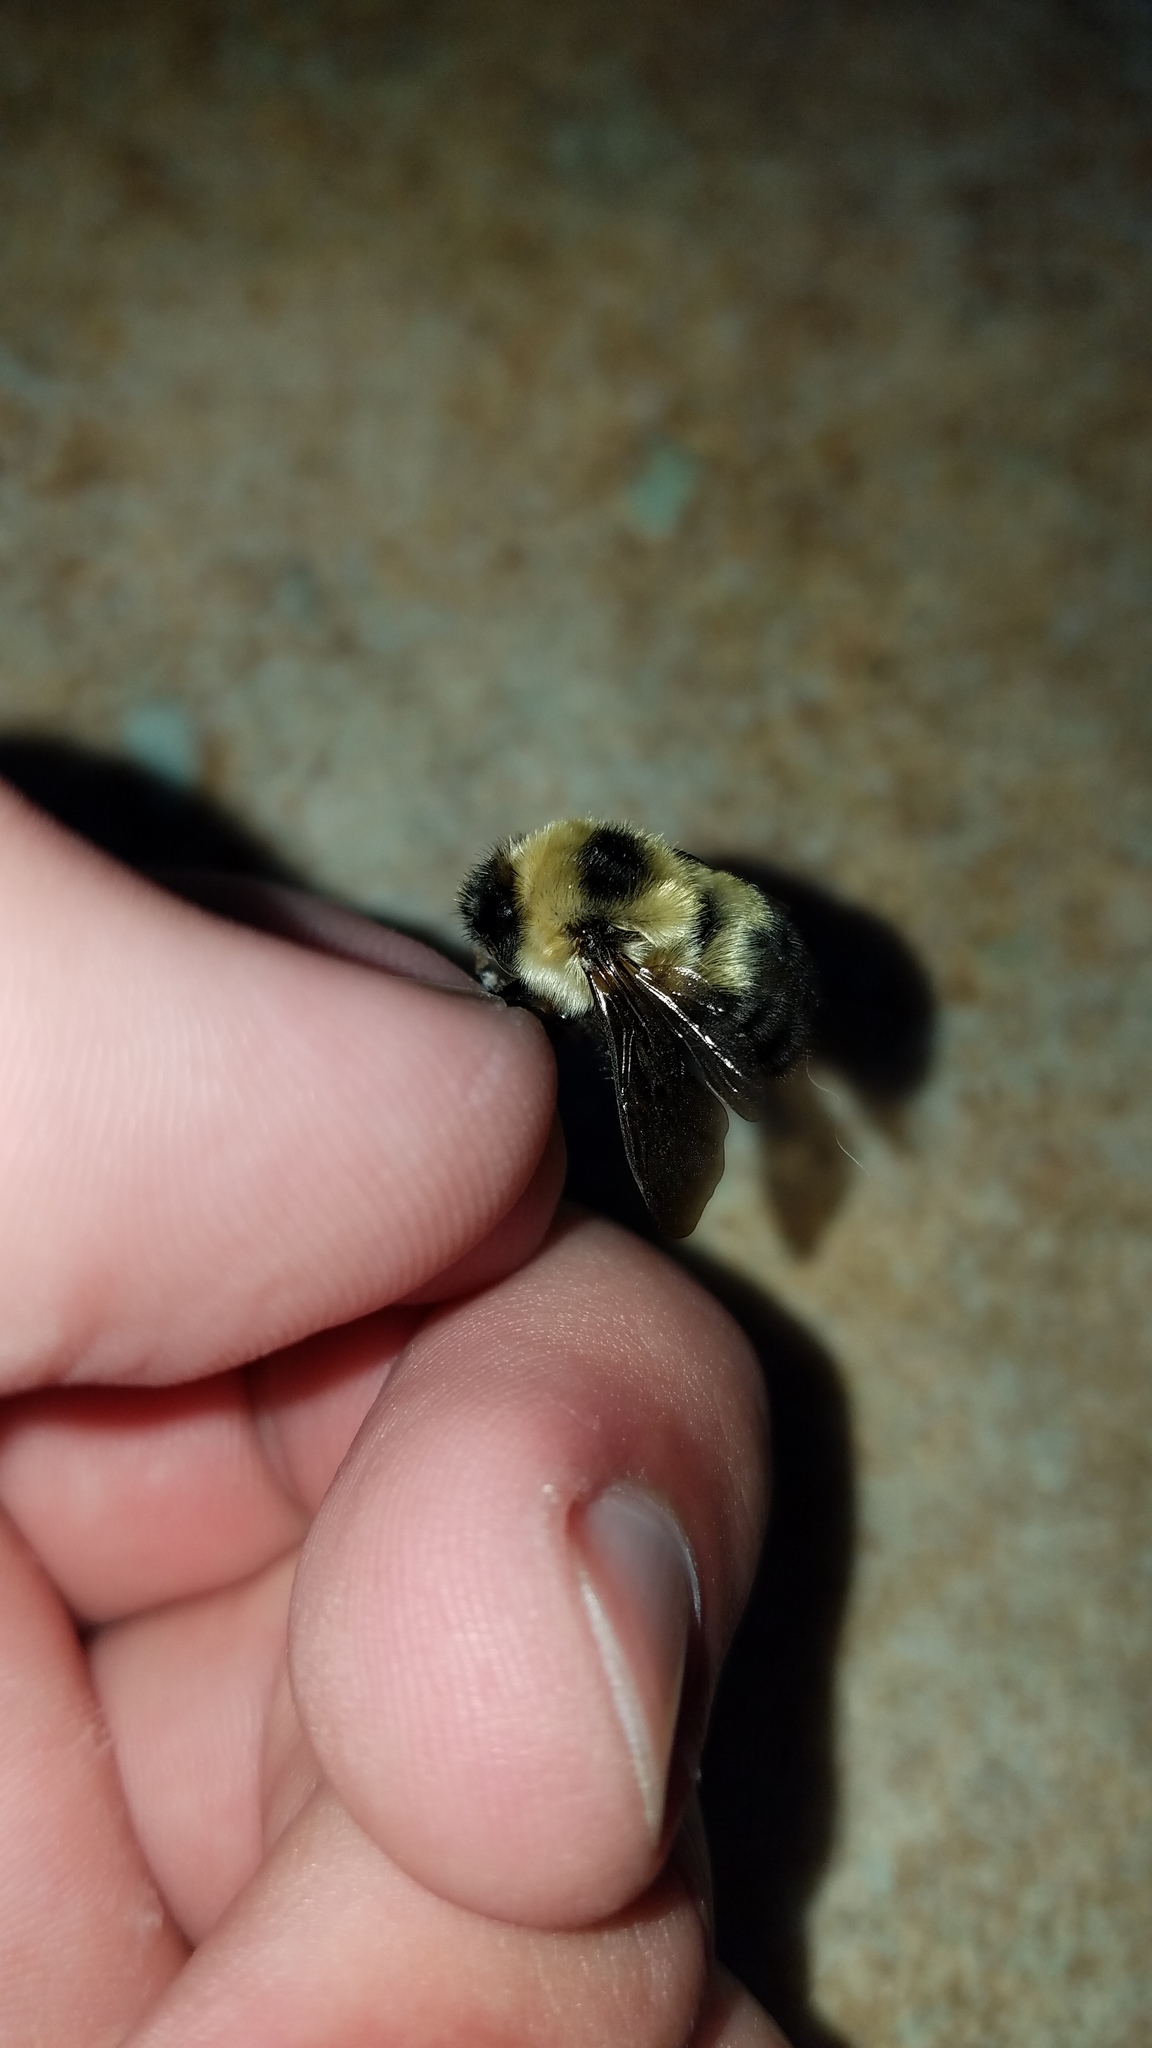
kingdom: Animalia
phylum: Arthropoda
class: Insecta
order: Hymenoptera
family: Apidae
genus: Bombus
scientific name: Bombus rufocinctus
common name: Red-belted bumble bee
